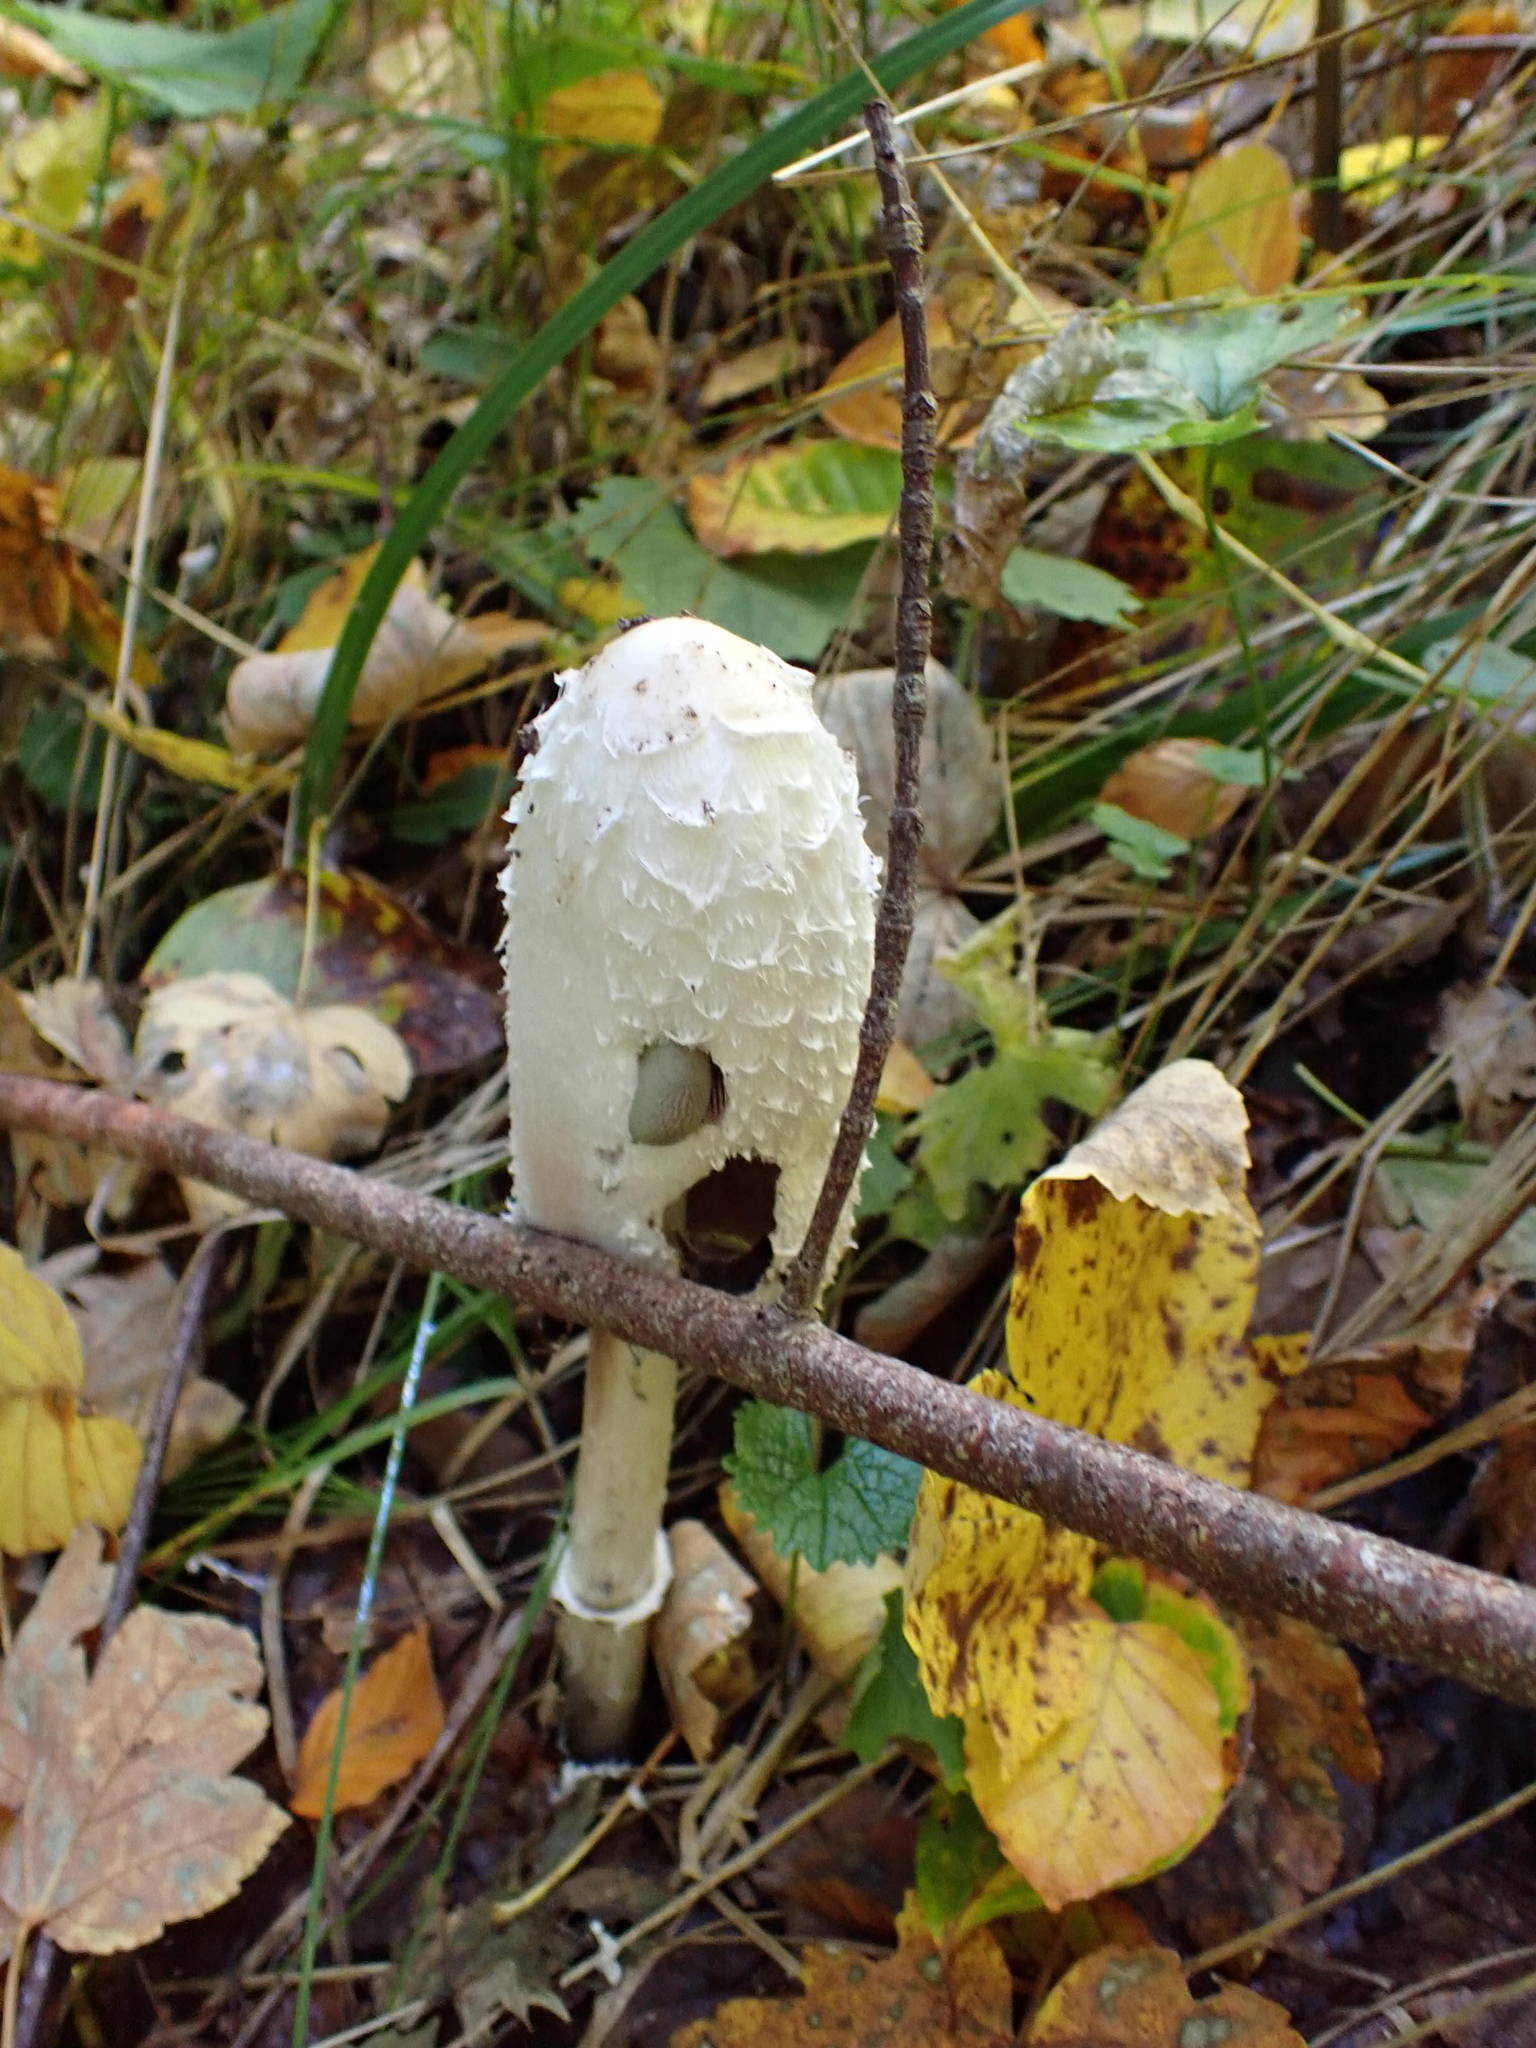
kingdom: Fungi
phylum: Basidiomycota
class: Agaricomycetes
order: Agaricales
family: Agaricaceae
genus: Coprinus
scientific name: Coprinus comatus
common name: Lawyer's wig
